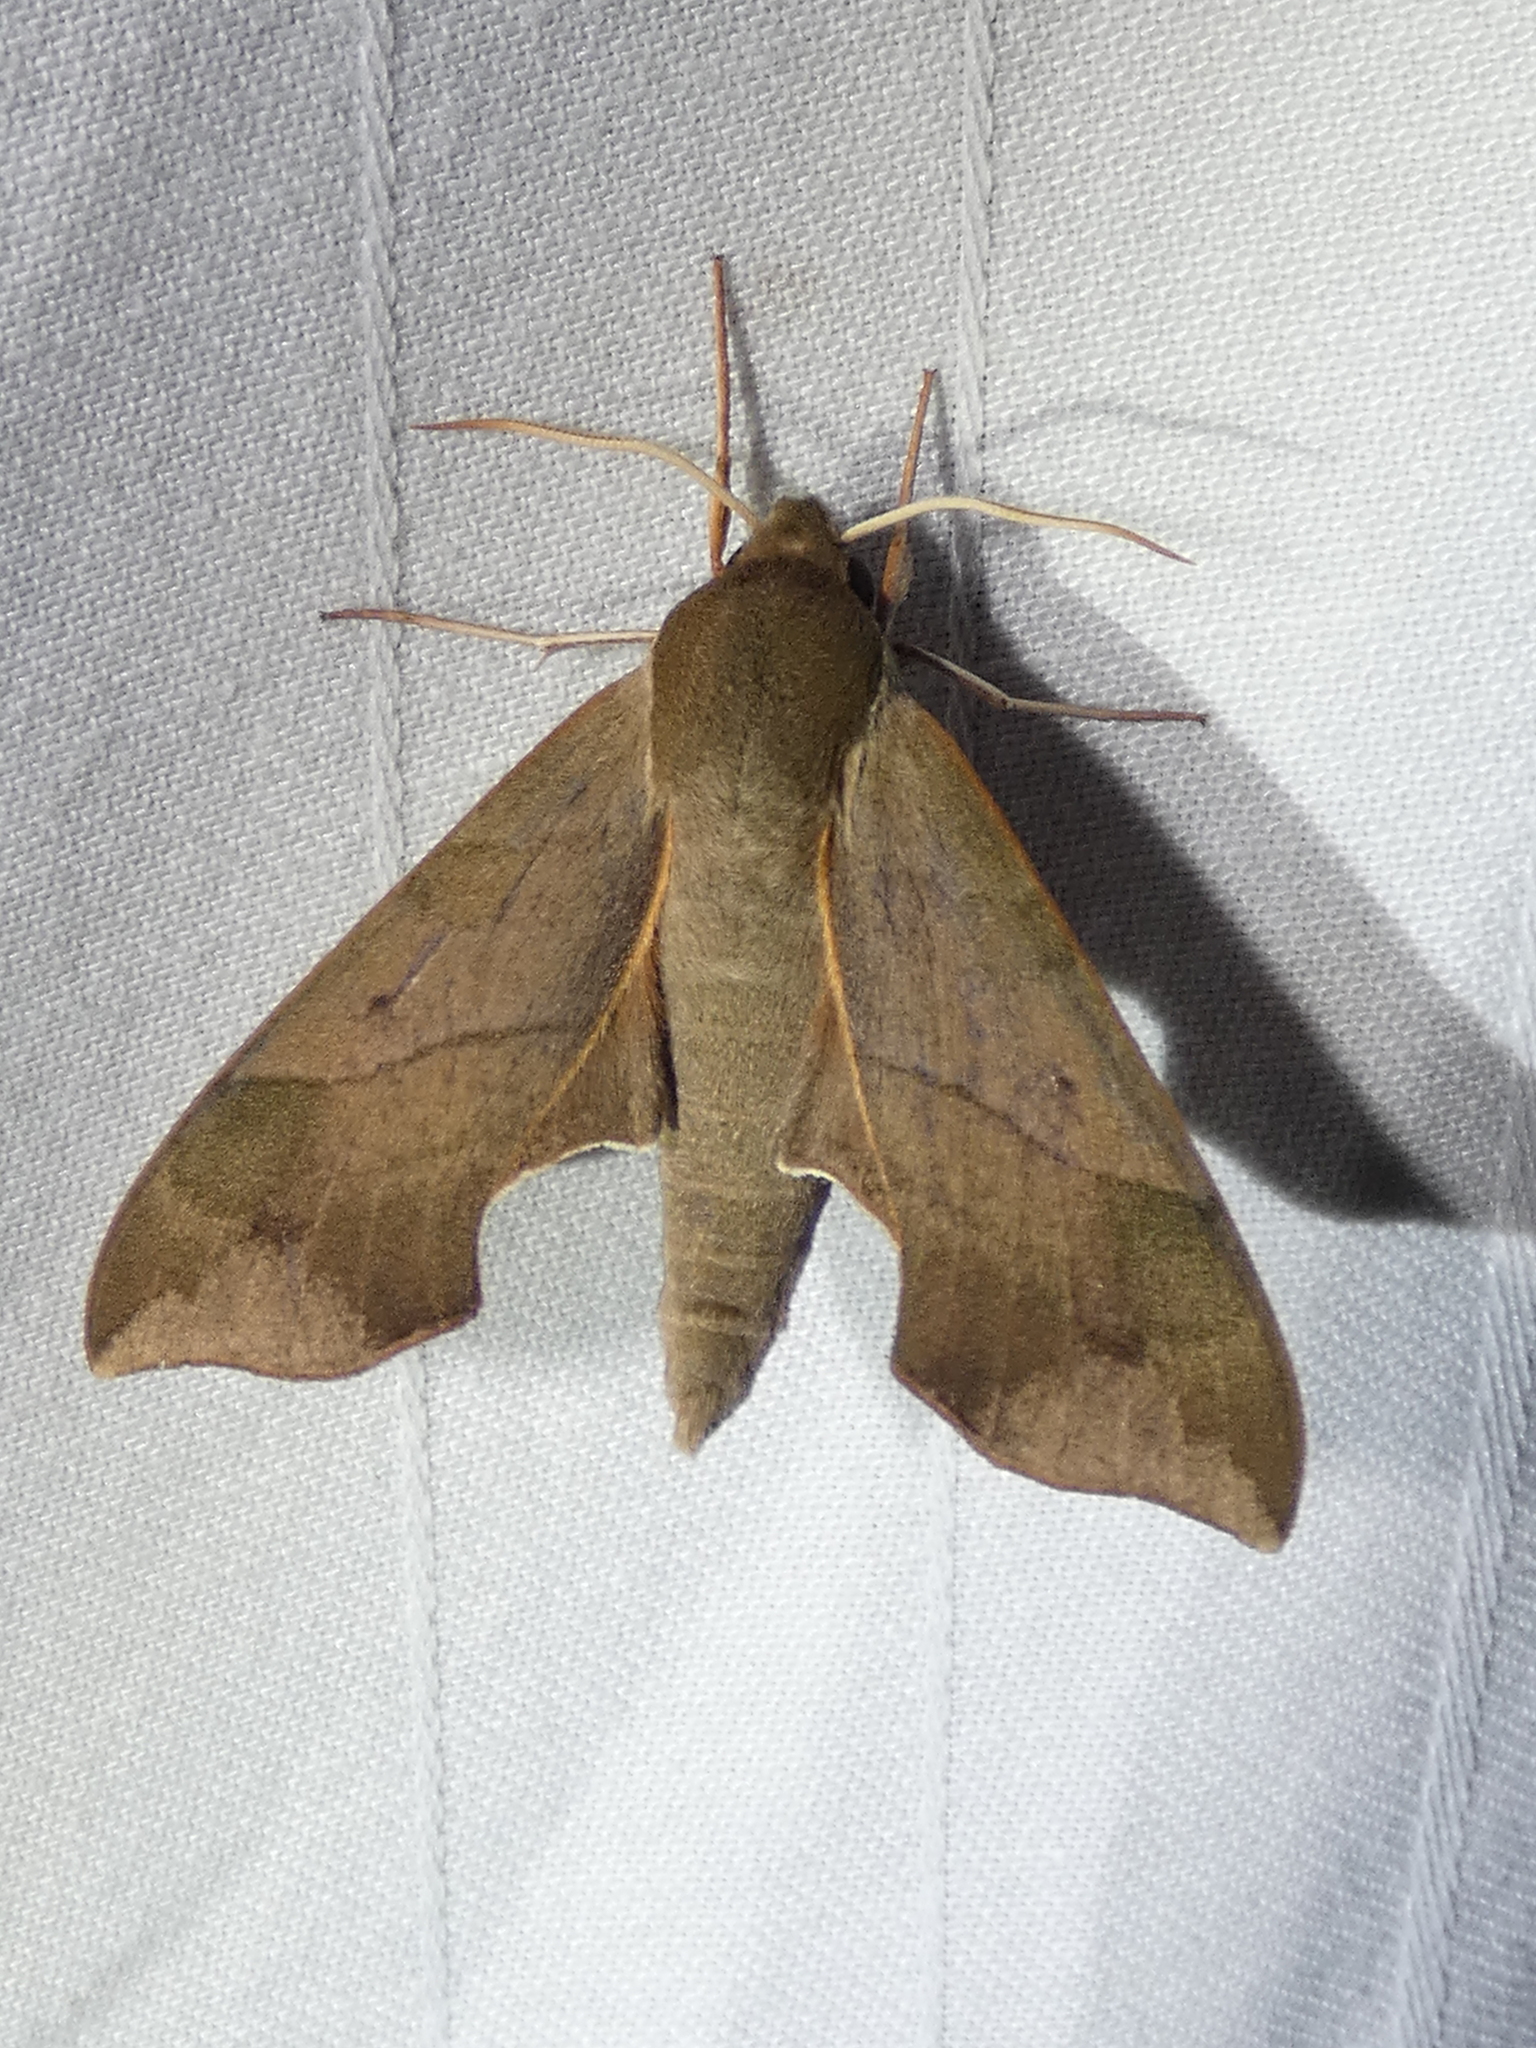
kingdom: Animalia
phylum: Arthropoda
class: Insecta
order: Lepidoptera
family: Sphingidae
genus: Darapsa
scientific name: Darapsa myron
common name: Hog sphinx
